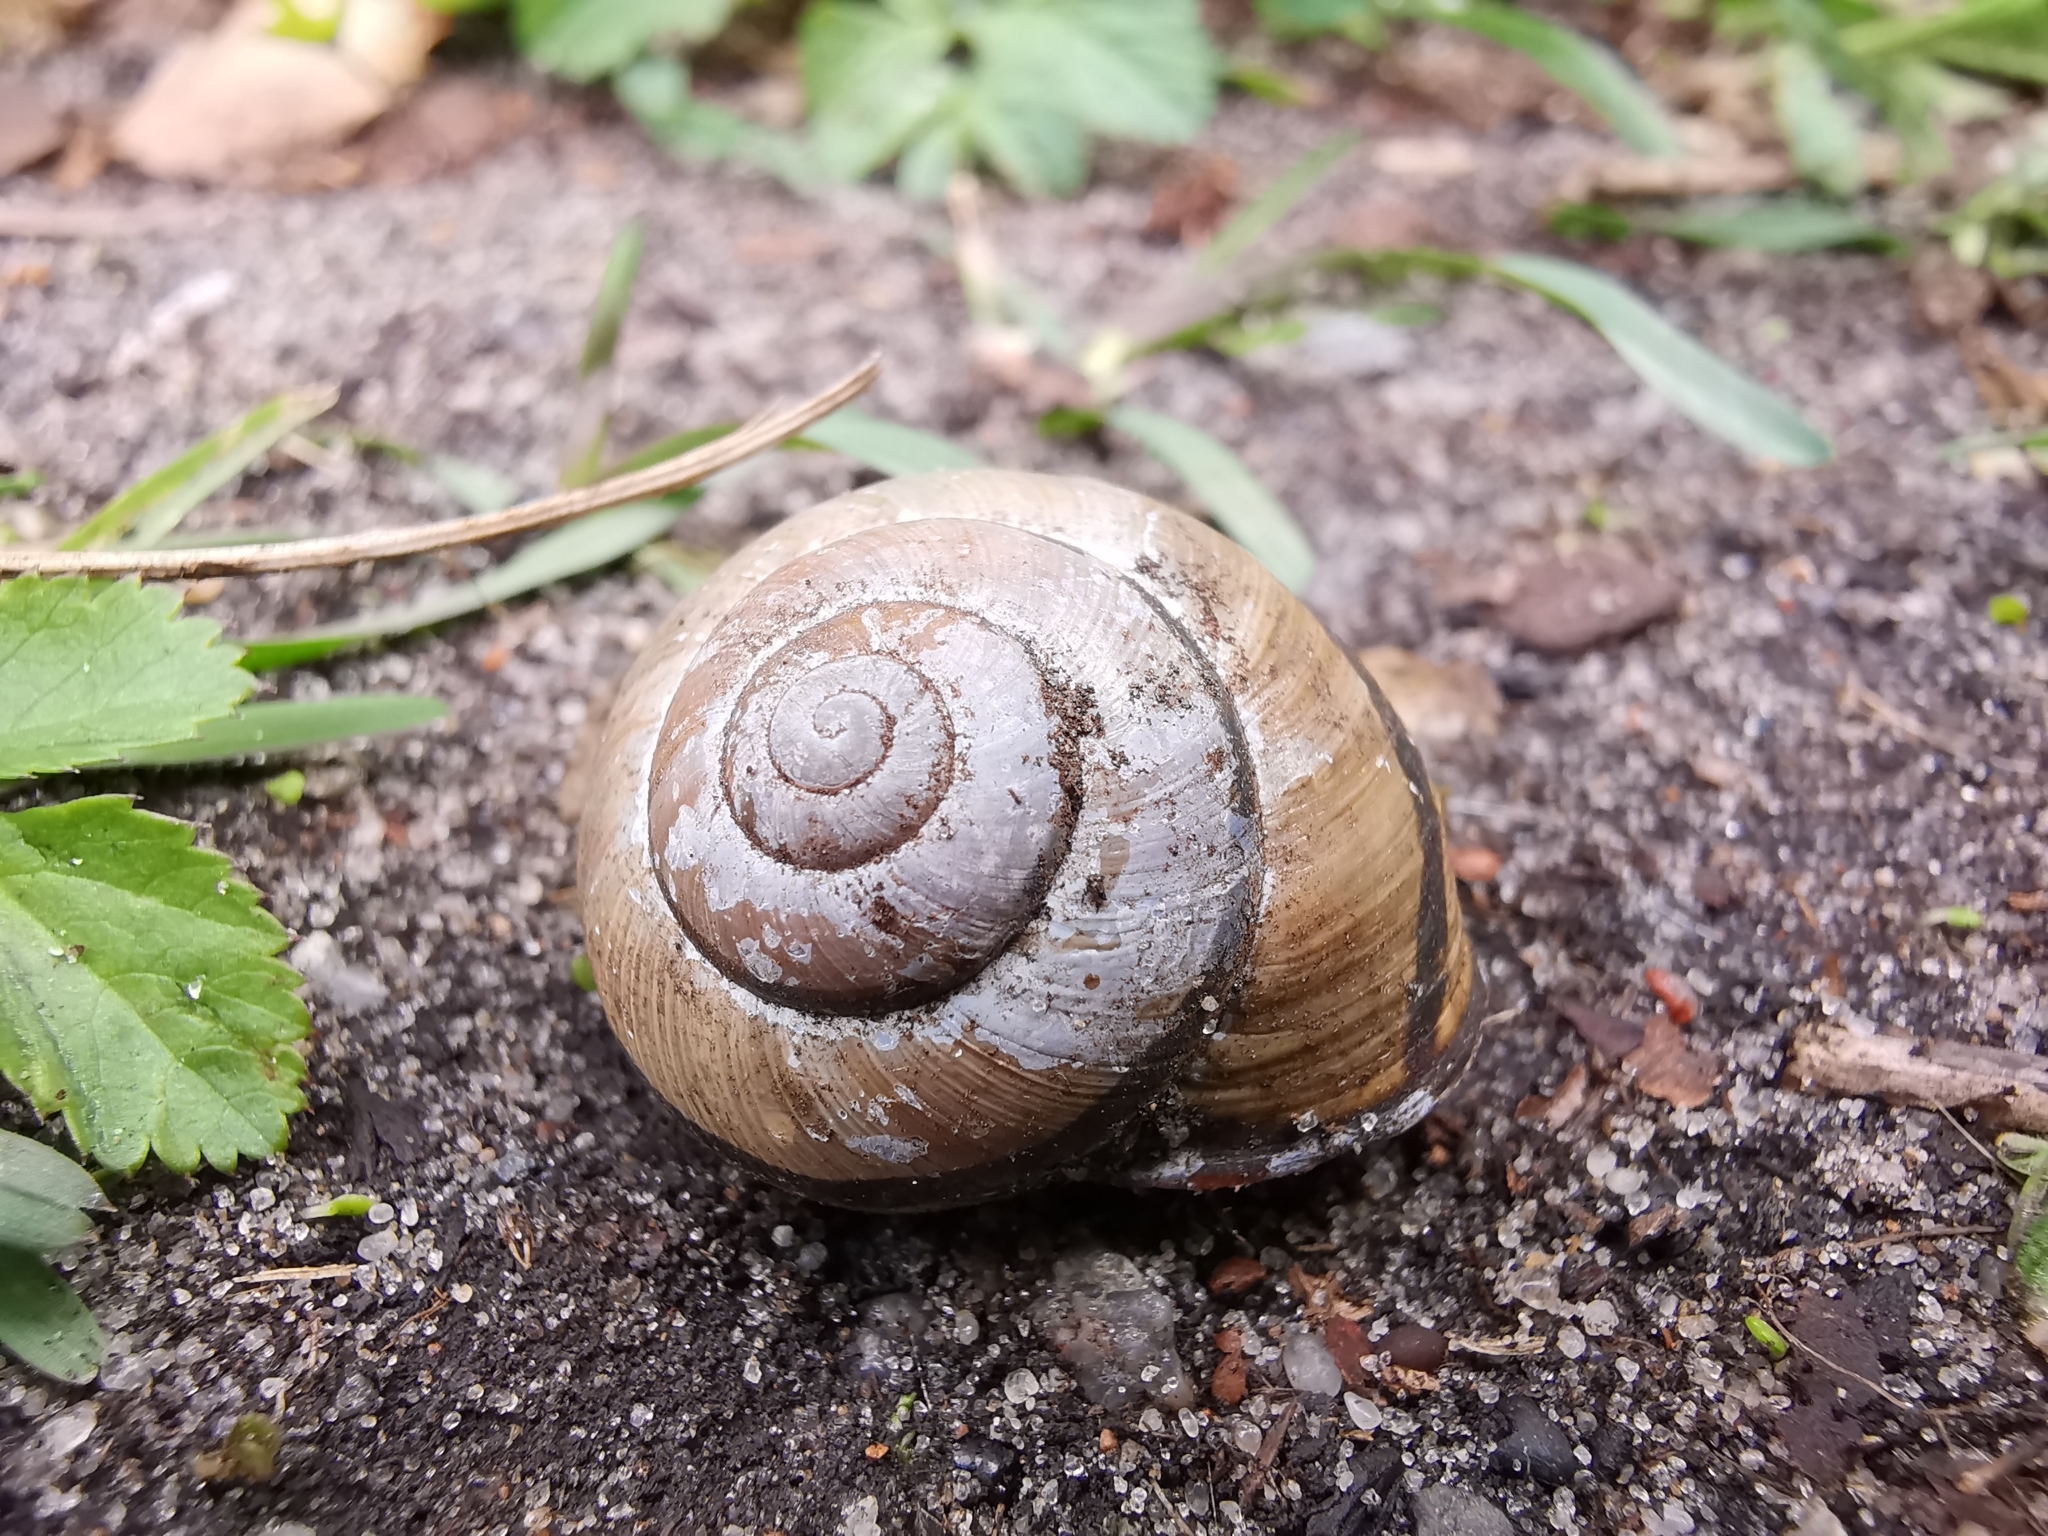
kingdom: Animalia
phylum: Mollusca
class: Gastropoda
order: Stylommatophora
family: Helicidae
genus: Cepaea
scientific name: Cepaea nemoralis
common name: Grovesnail
